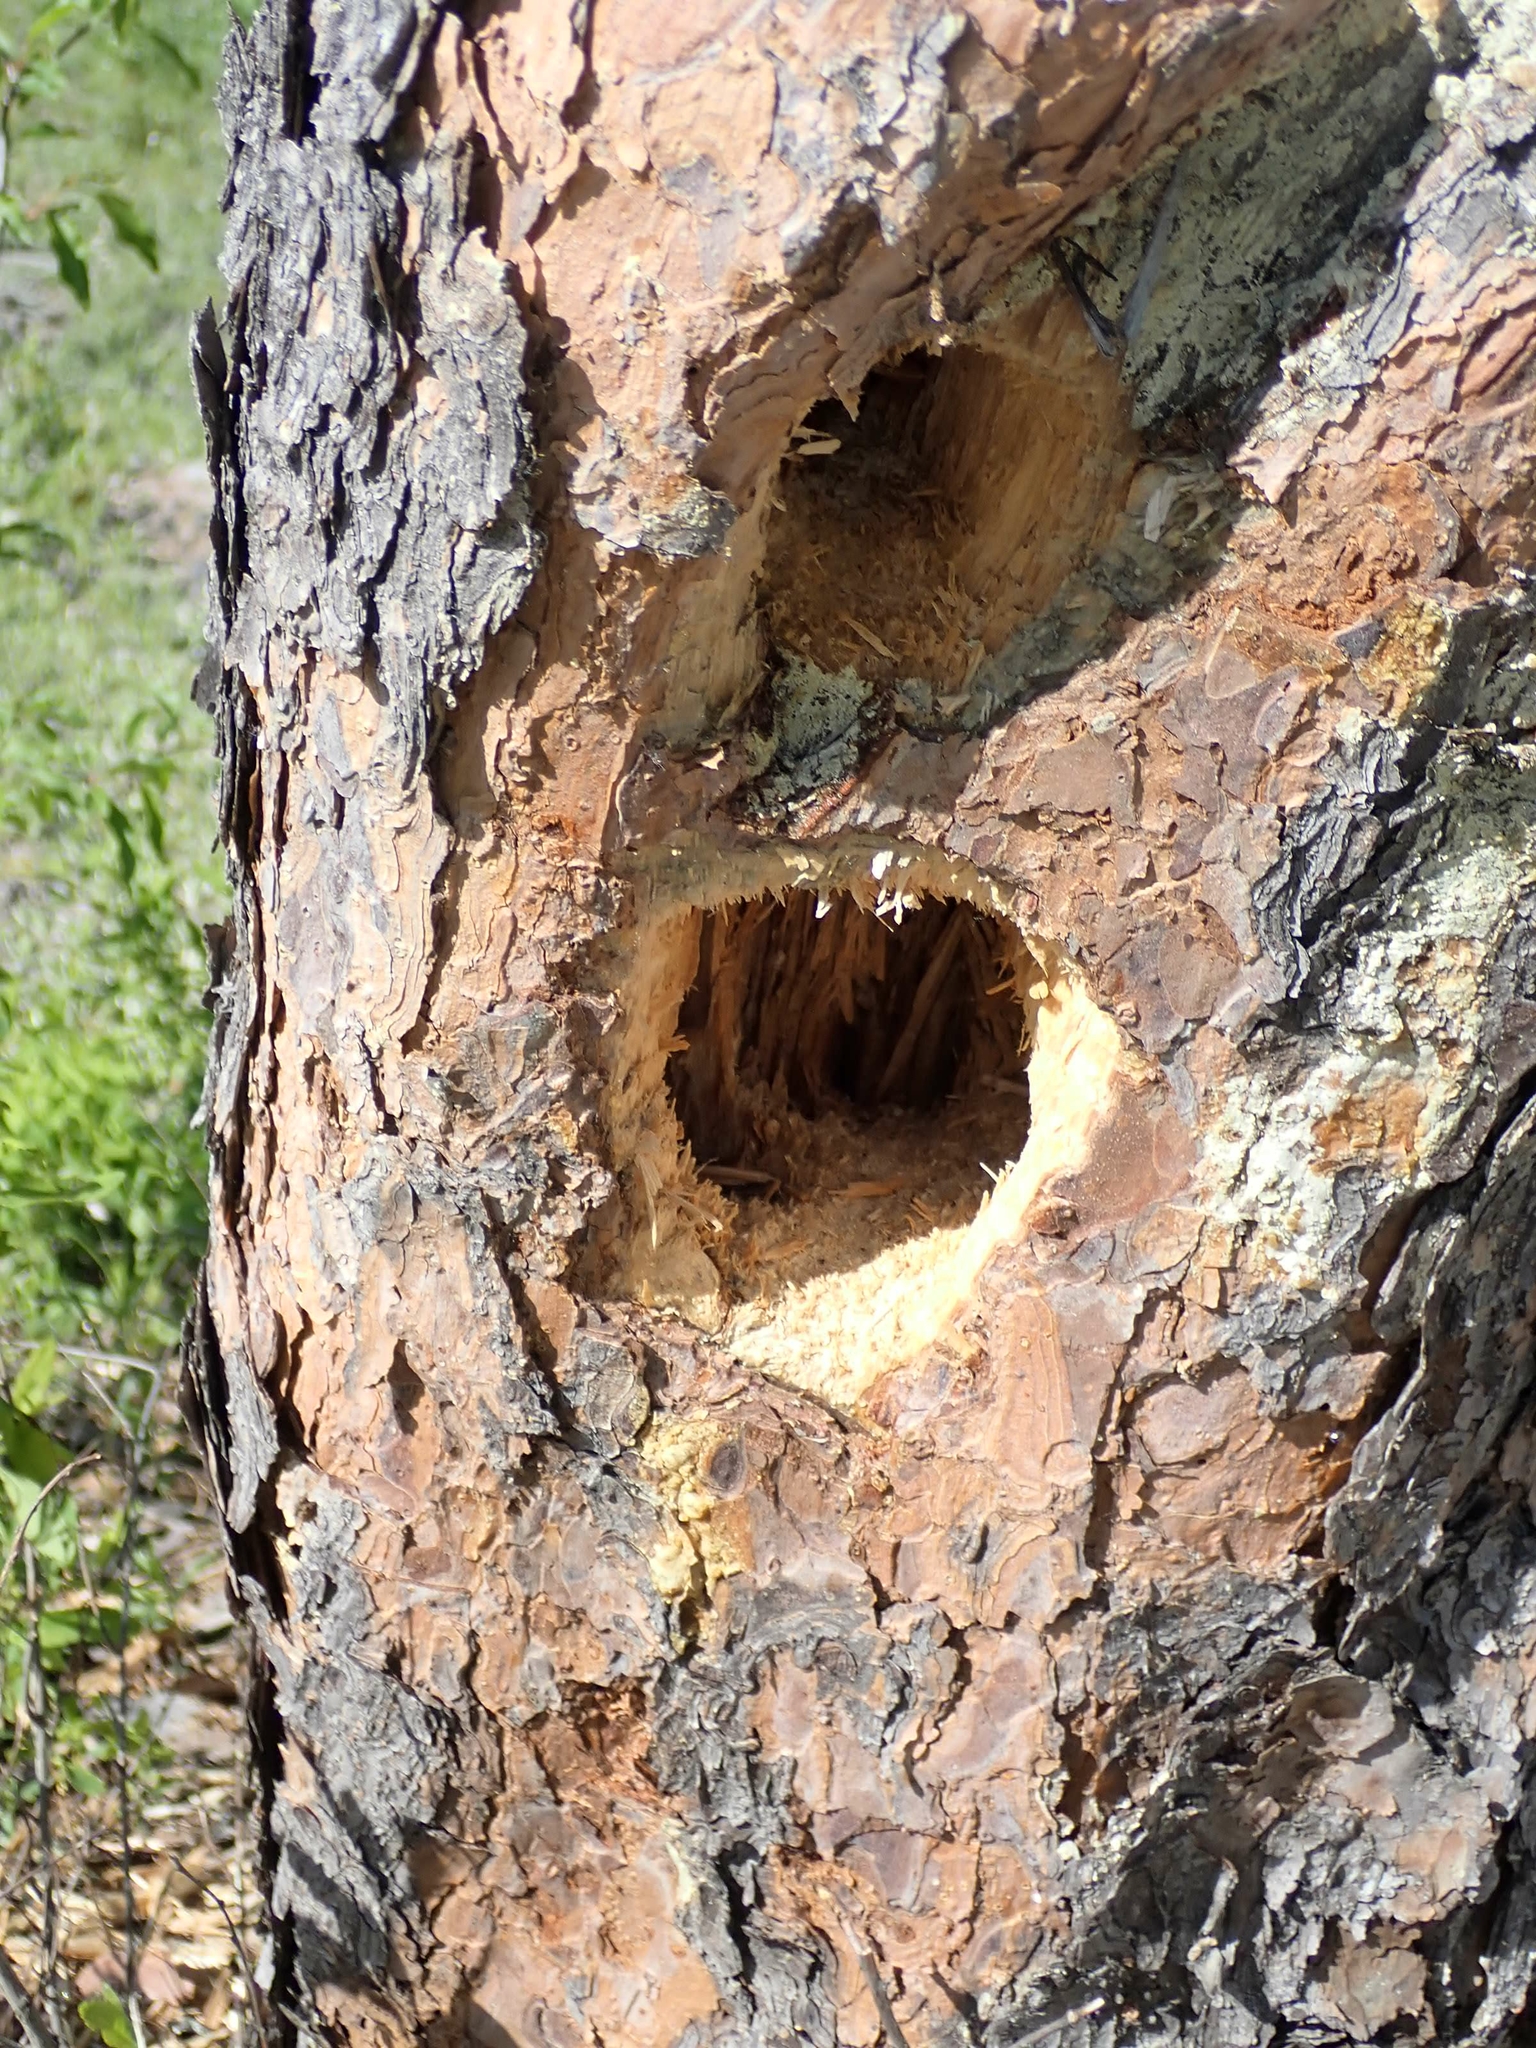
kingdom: Animalia
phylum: Chordata
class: Aves
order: Piciformes
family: Picidae
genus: Dryocopus
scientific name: Dryocopus pileatus
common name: Pileated woodpecker
